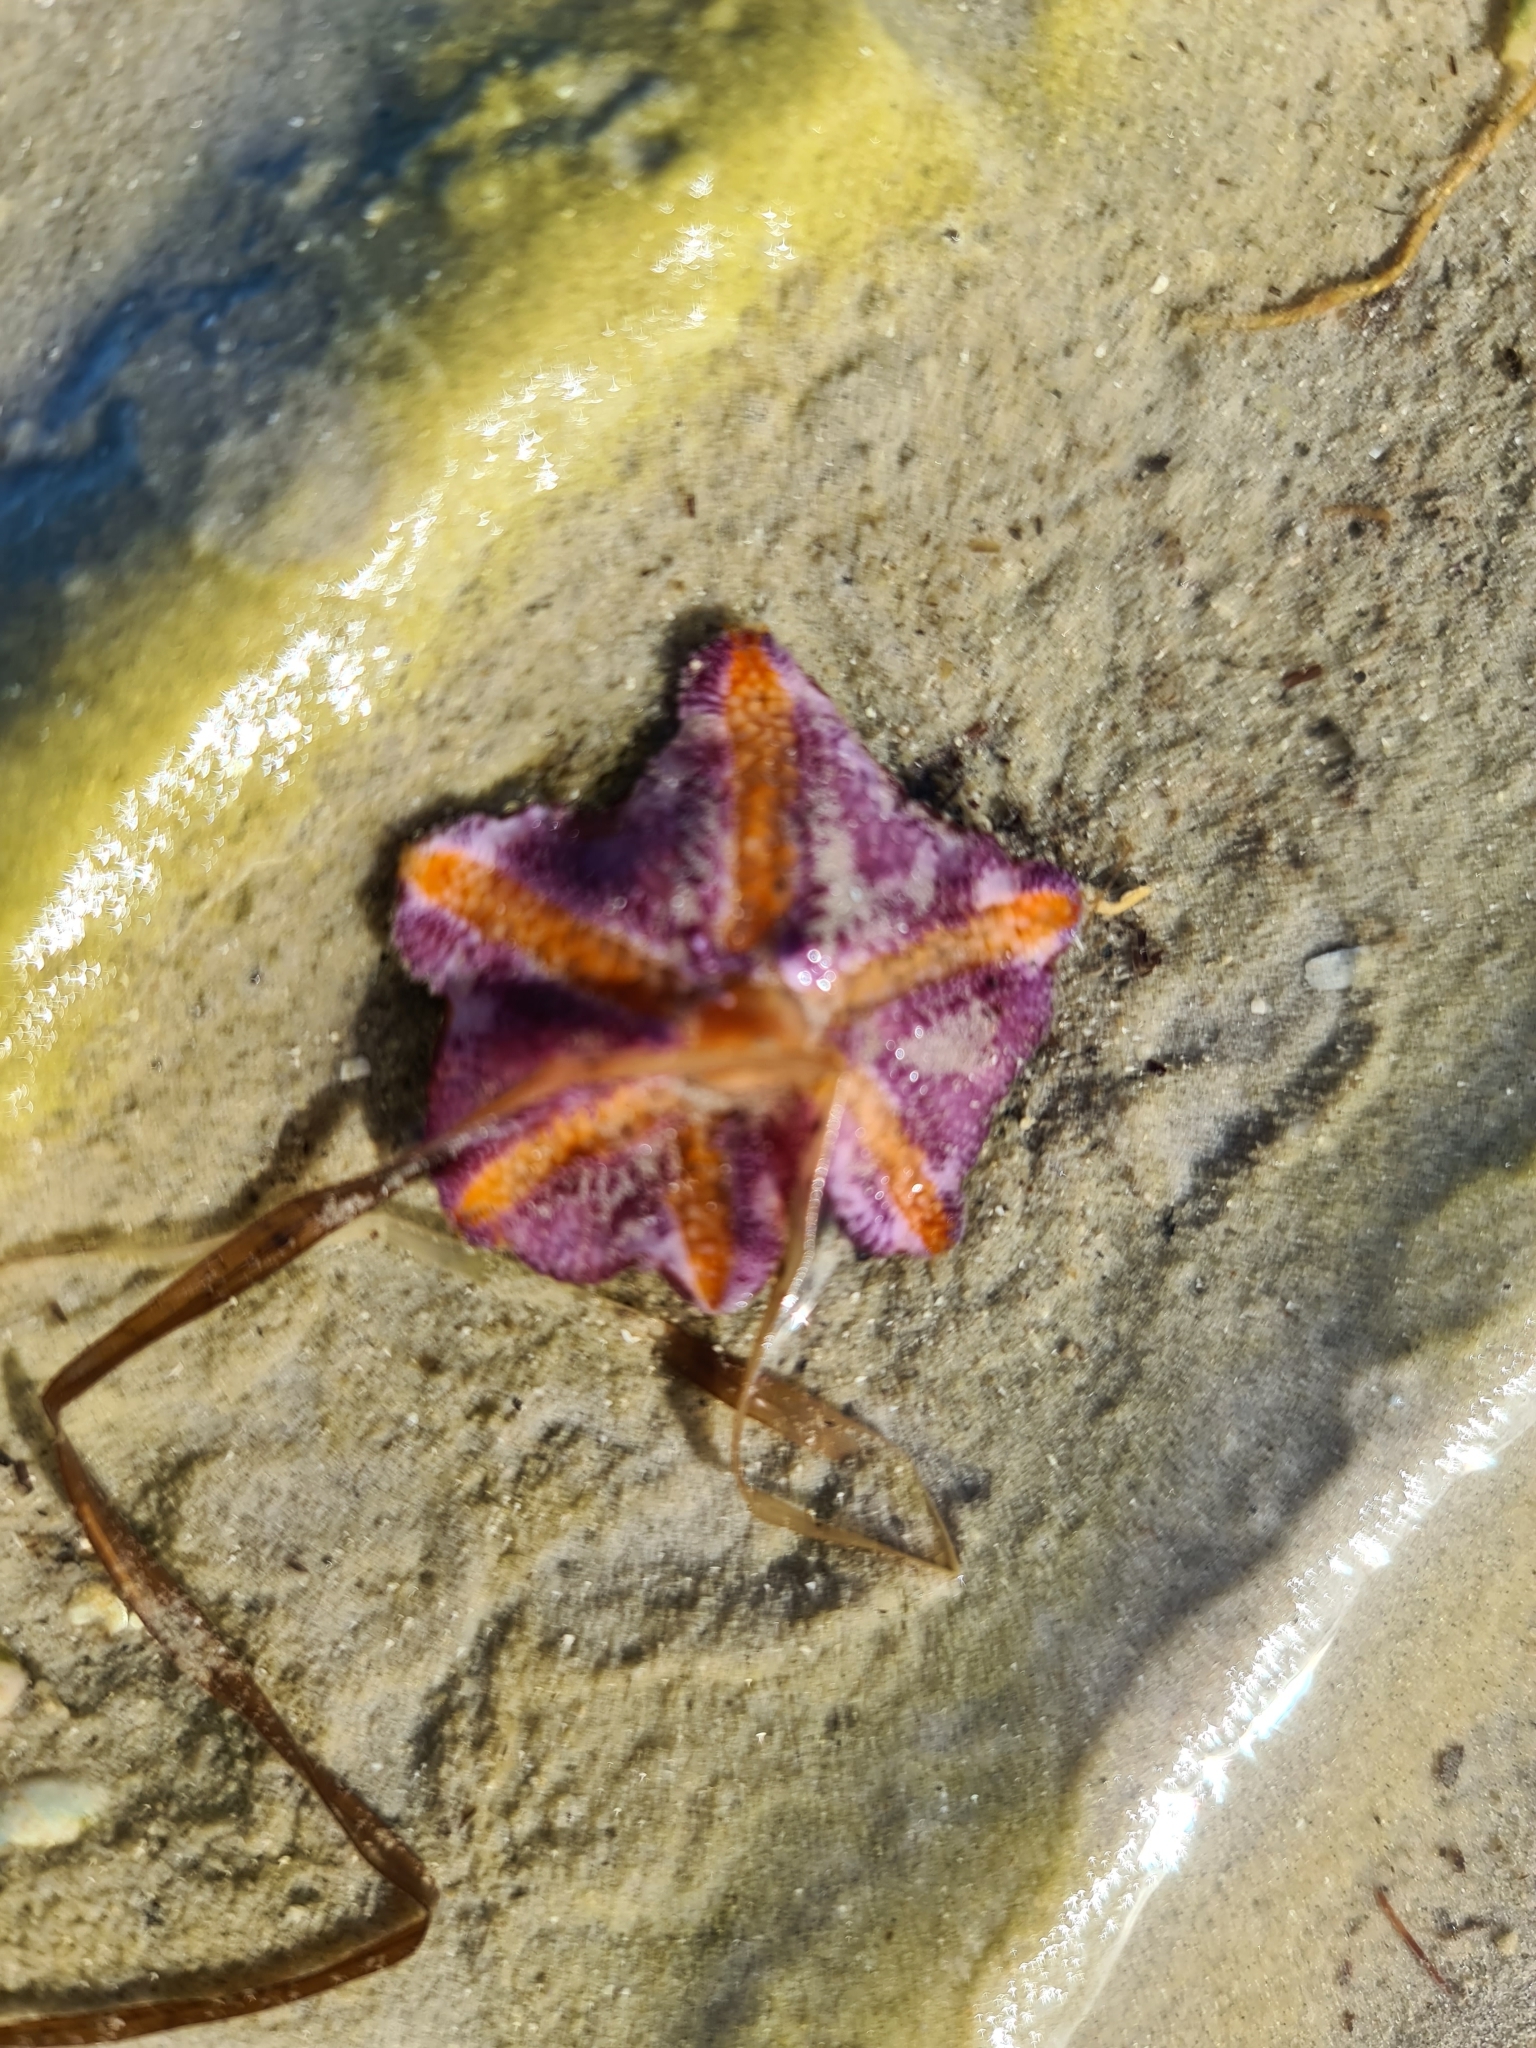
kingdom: Animalia
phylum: Echinodermata
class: Asteroidea
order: Valvatida
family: Asterinidae
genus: Meridiastra
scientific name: Meridiastra gunnii
